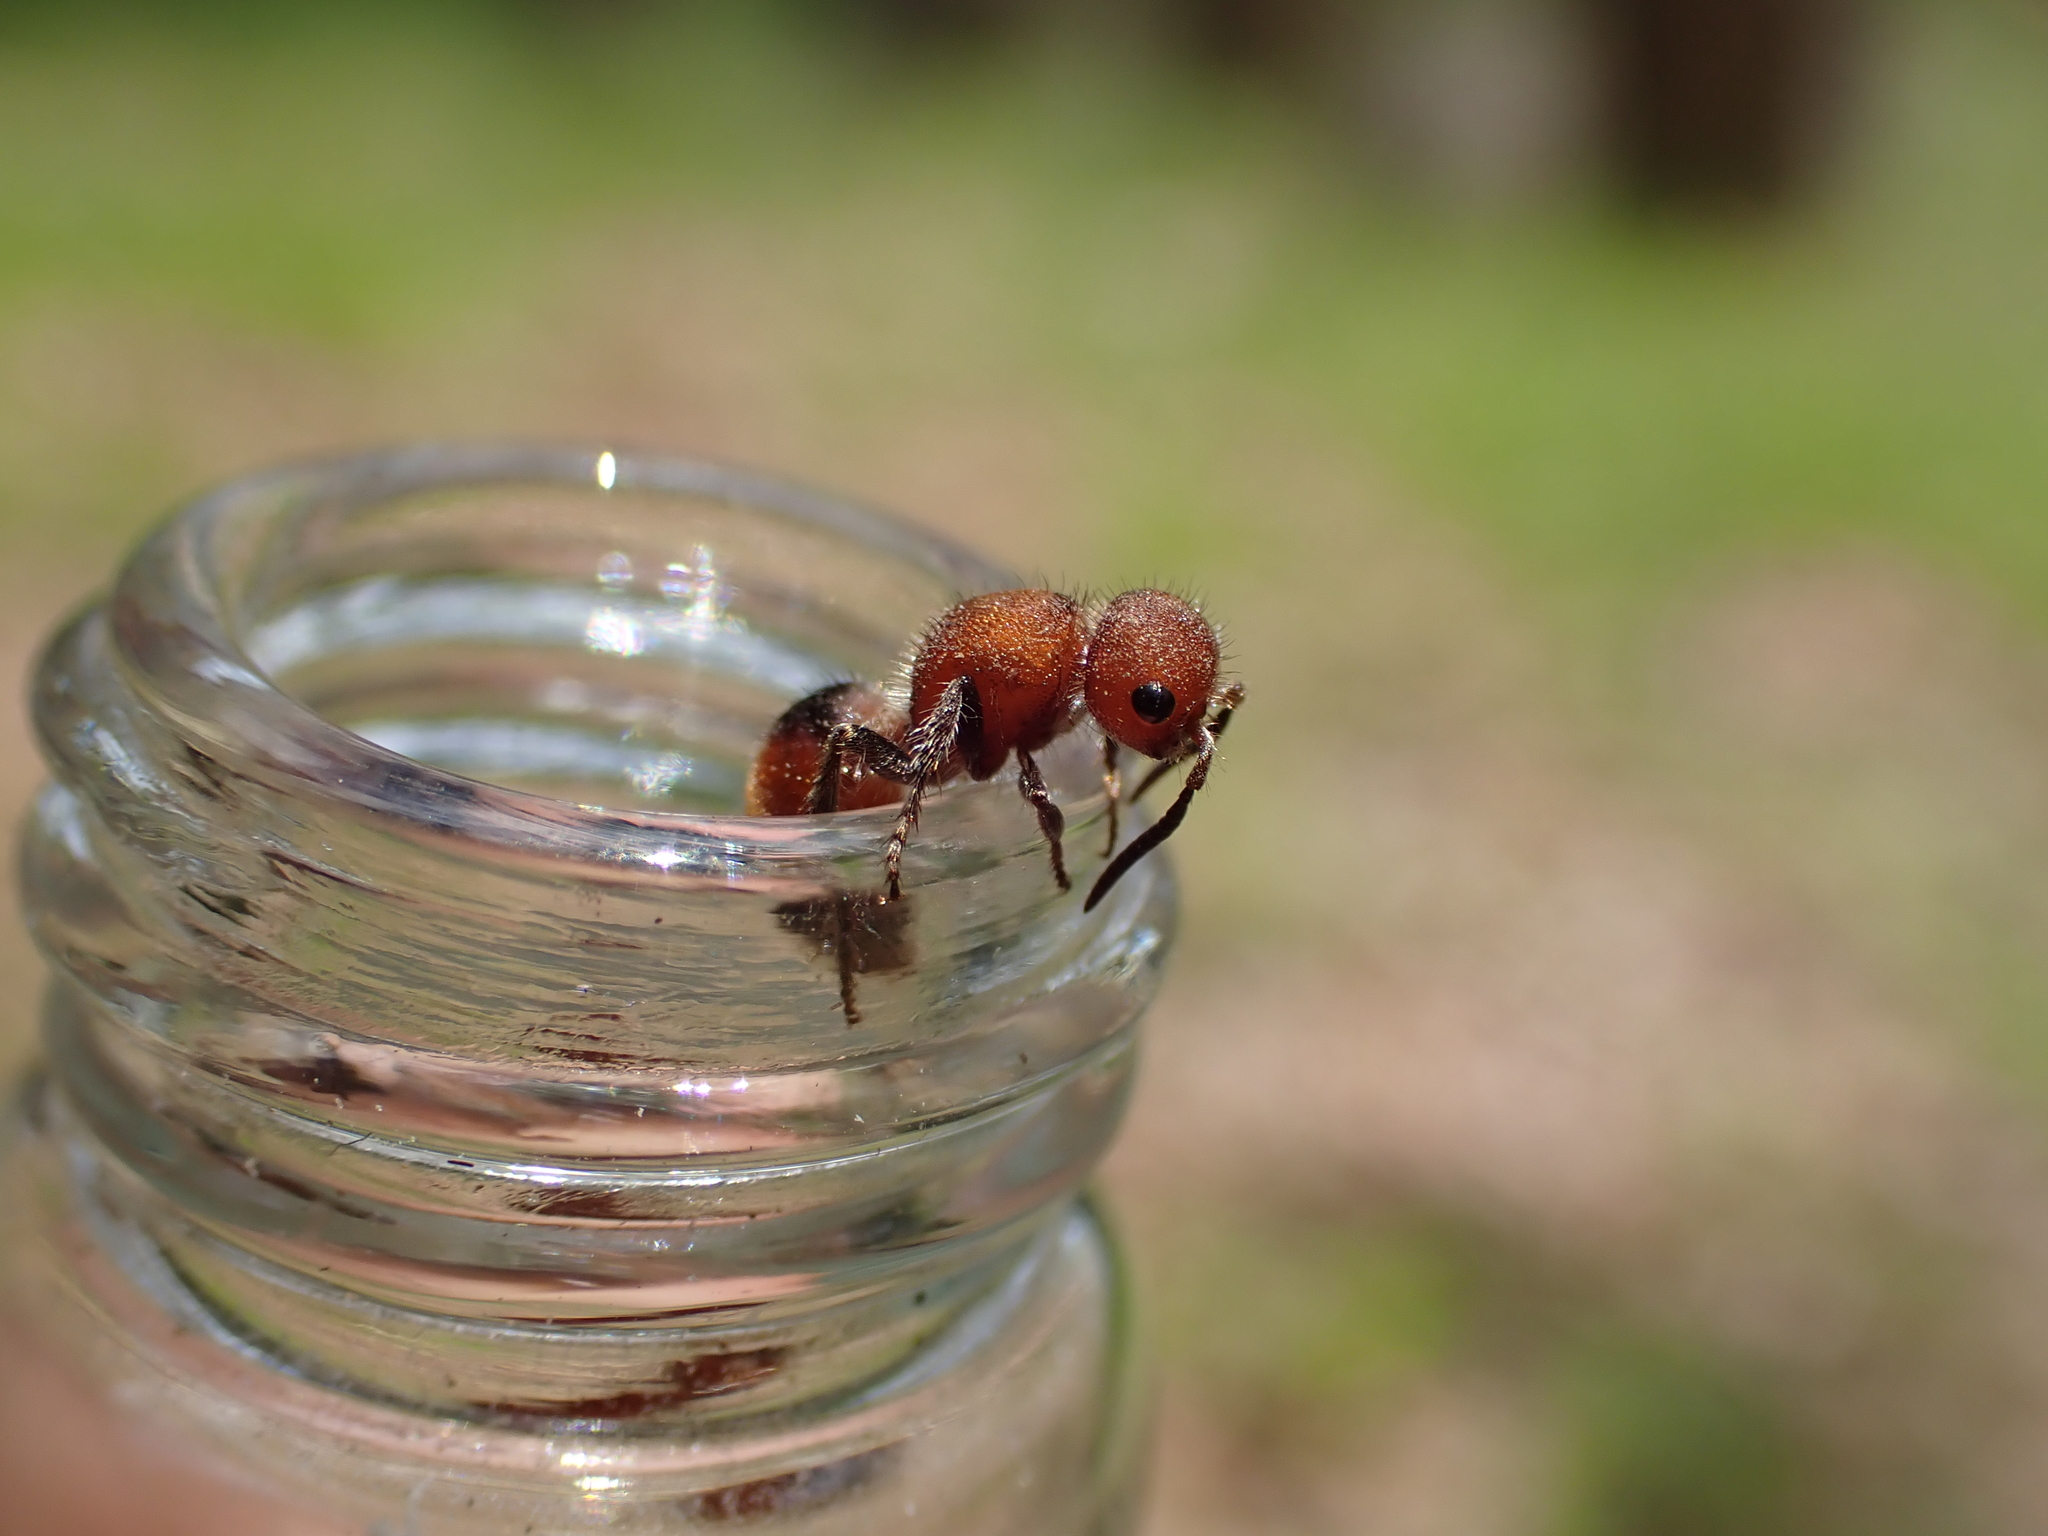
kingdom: Animalia
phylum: Arthropoda
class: Insecta
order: Hymenoptera
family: Mutillidae
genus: Pseudomethoca
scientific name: Pseudomethoca
